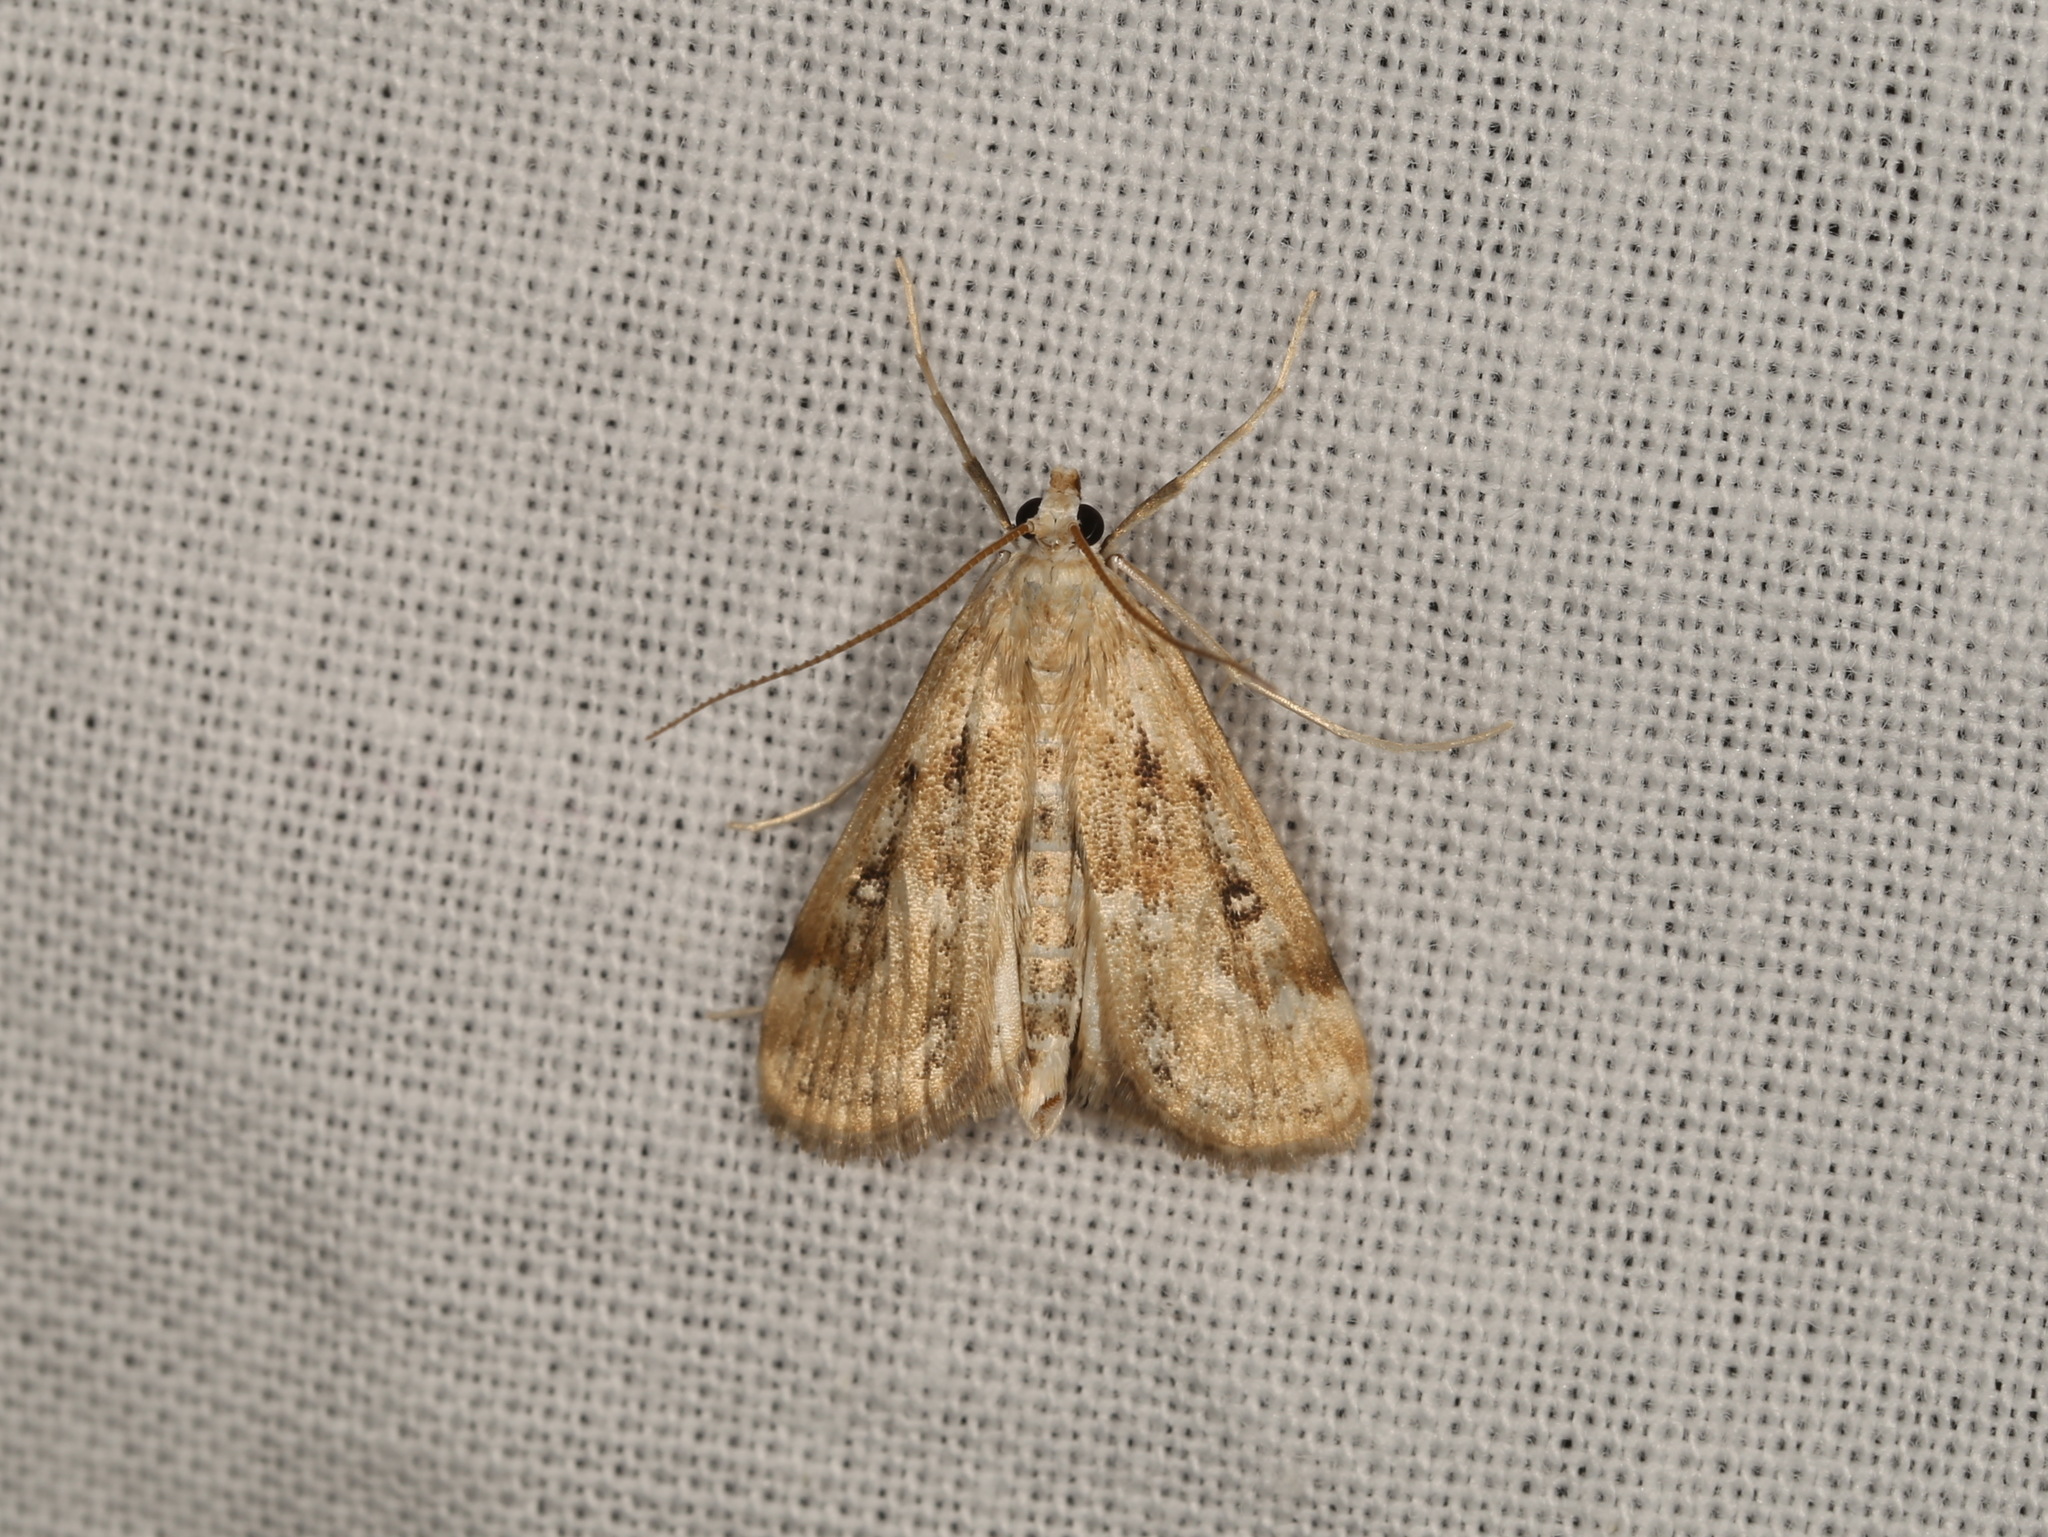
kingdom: Animalia
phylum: Arthropoda
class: Insecta
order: Lepidoptera
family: Crambidae
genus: Parapoynx
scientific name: Parapoynx stratiotata
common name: Ringed china-mark
